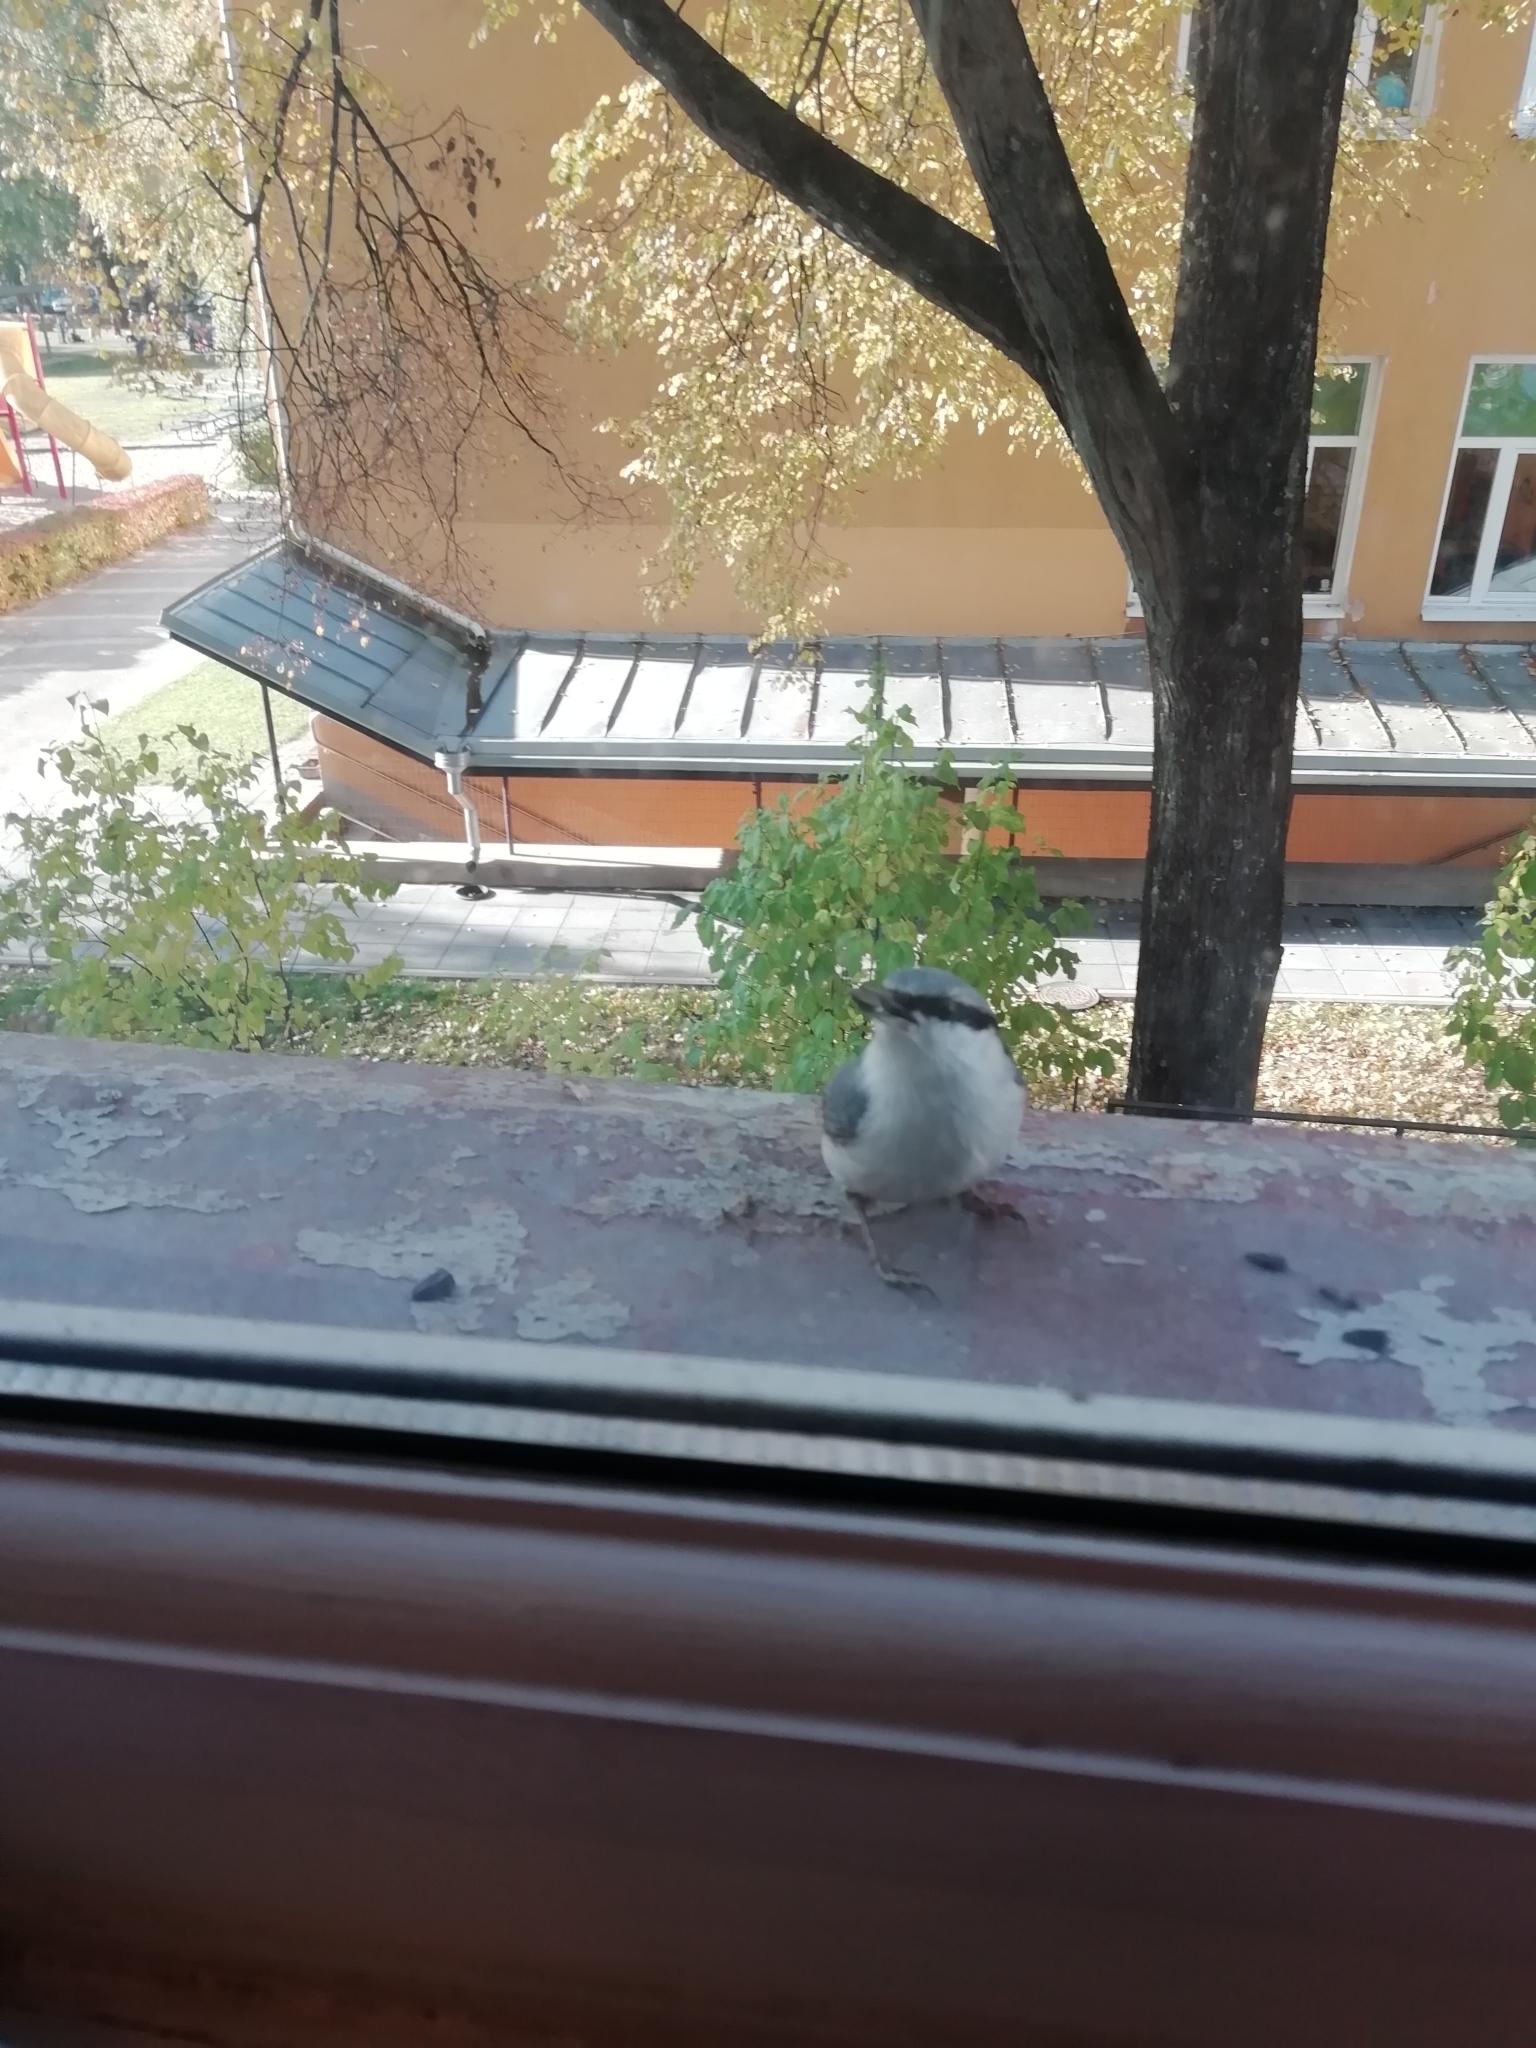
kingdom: Animalia
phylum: Chordata
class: Aves
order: Passeriformes
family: Sittidae
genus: Sitta
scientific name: Sitta europaea
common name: Eurasian nuthatch
